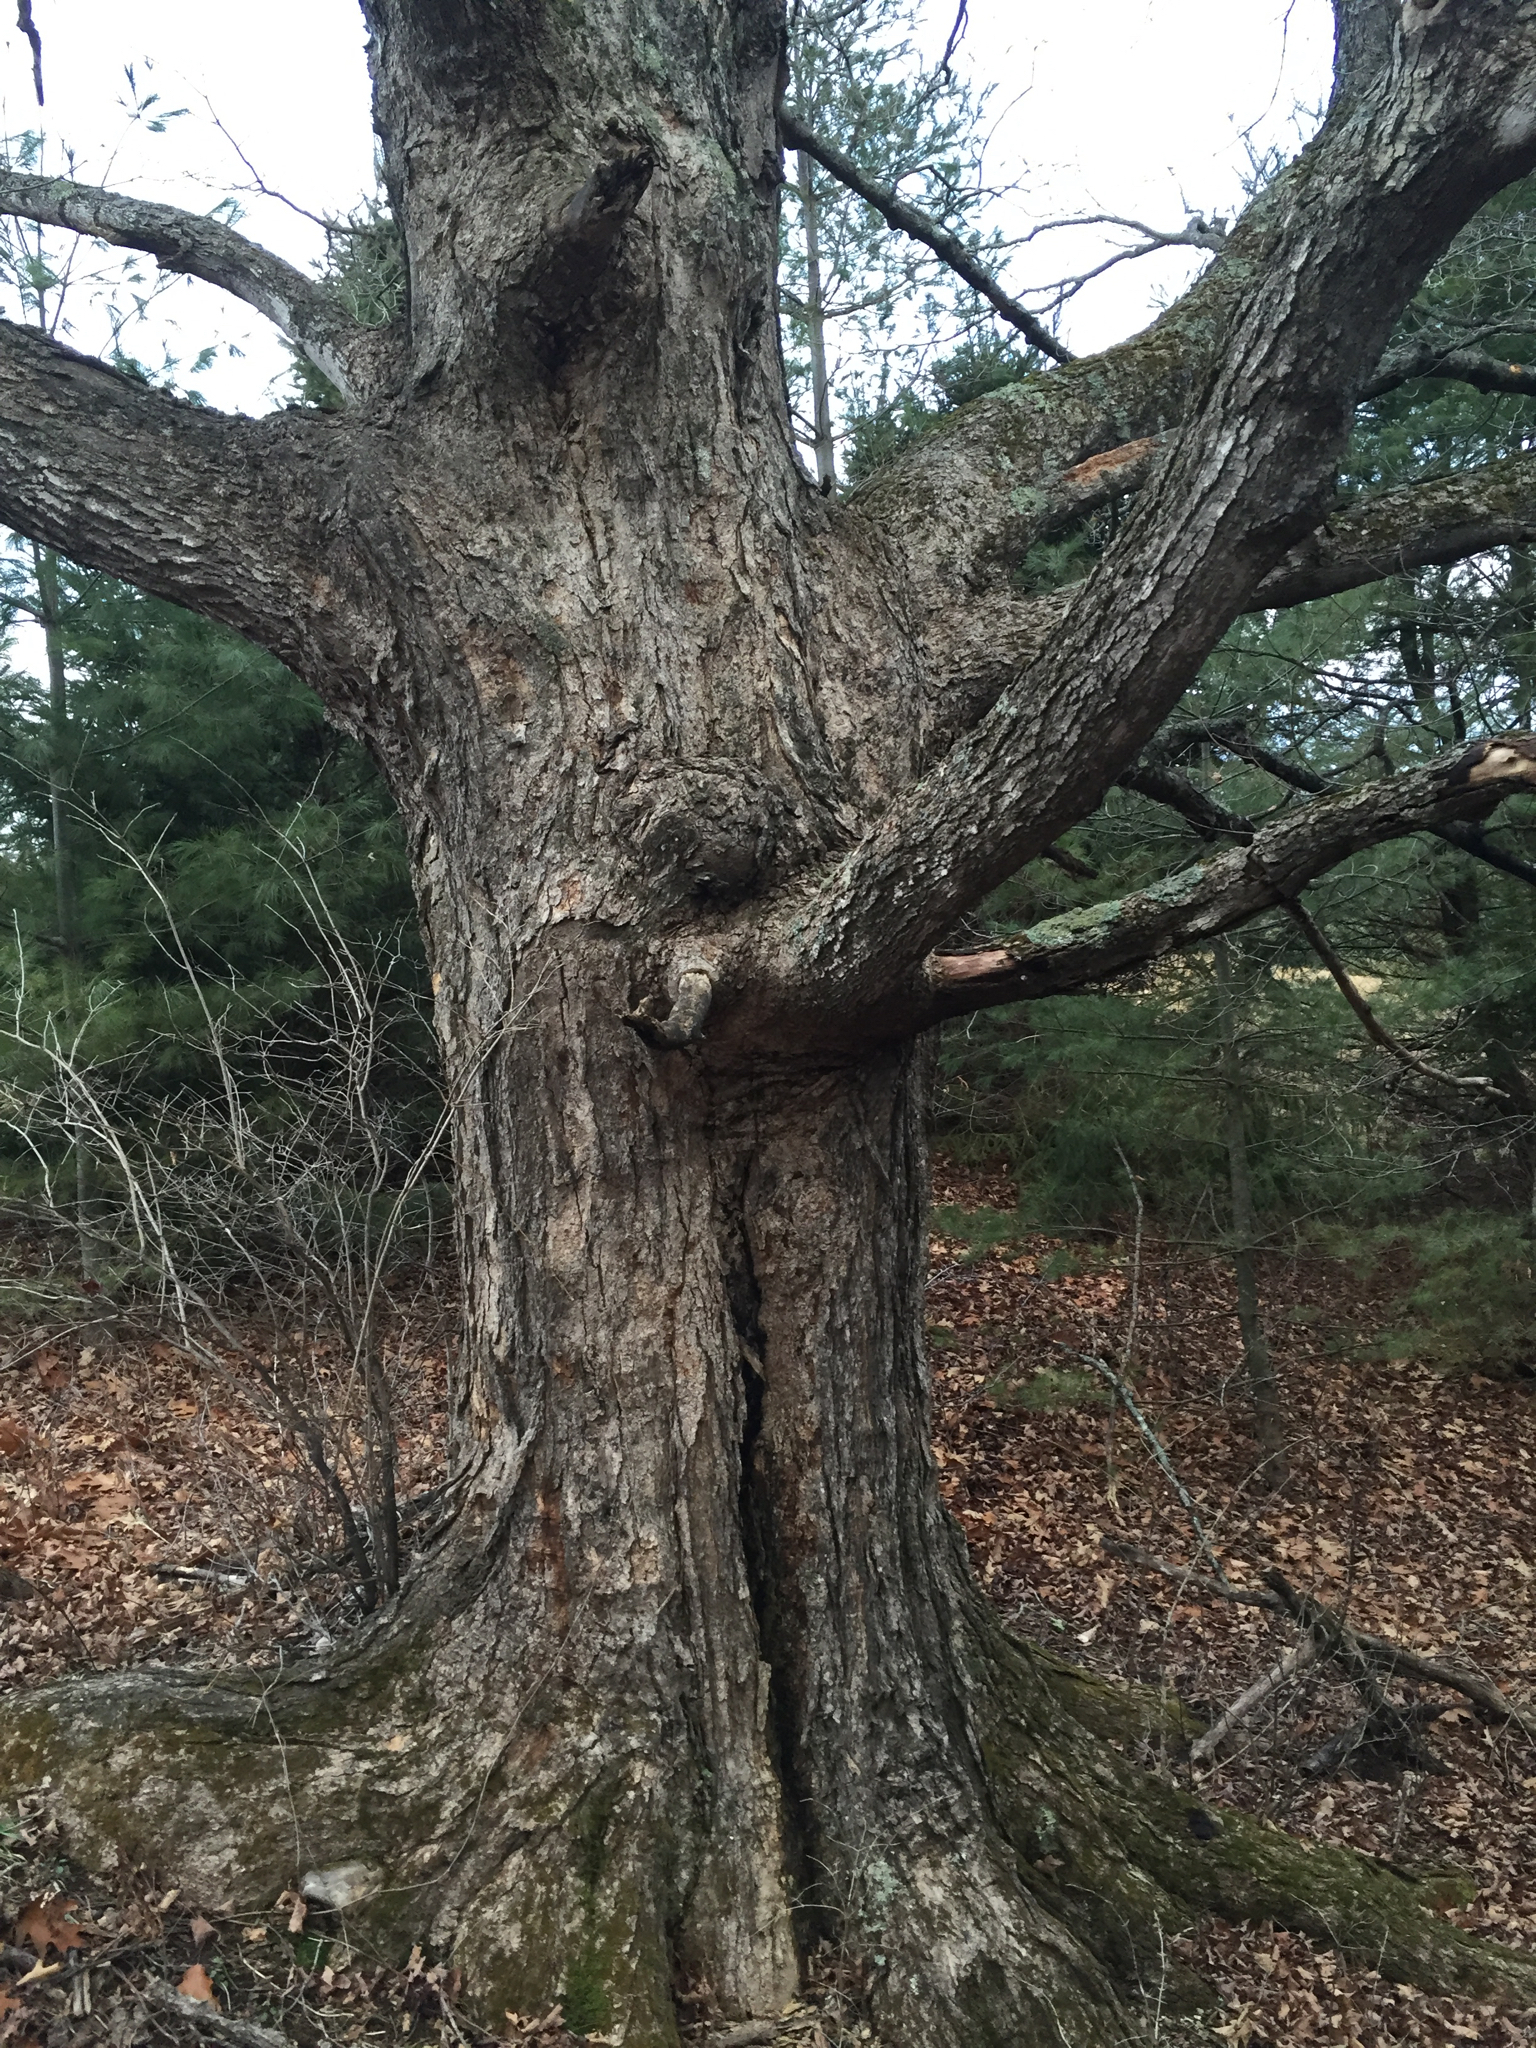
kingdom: Plantae
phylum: Tracheophyta
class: Magnoliopsida
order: Sapindales
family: Sapindaceae
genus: Acer
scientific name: Acer saccharum
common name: Sugar maple
